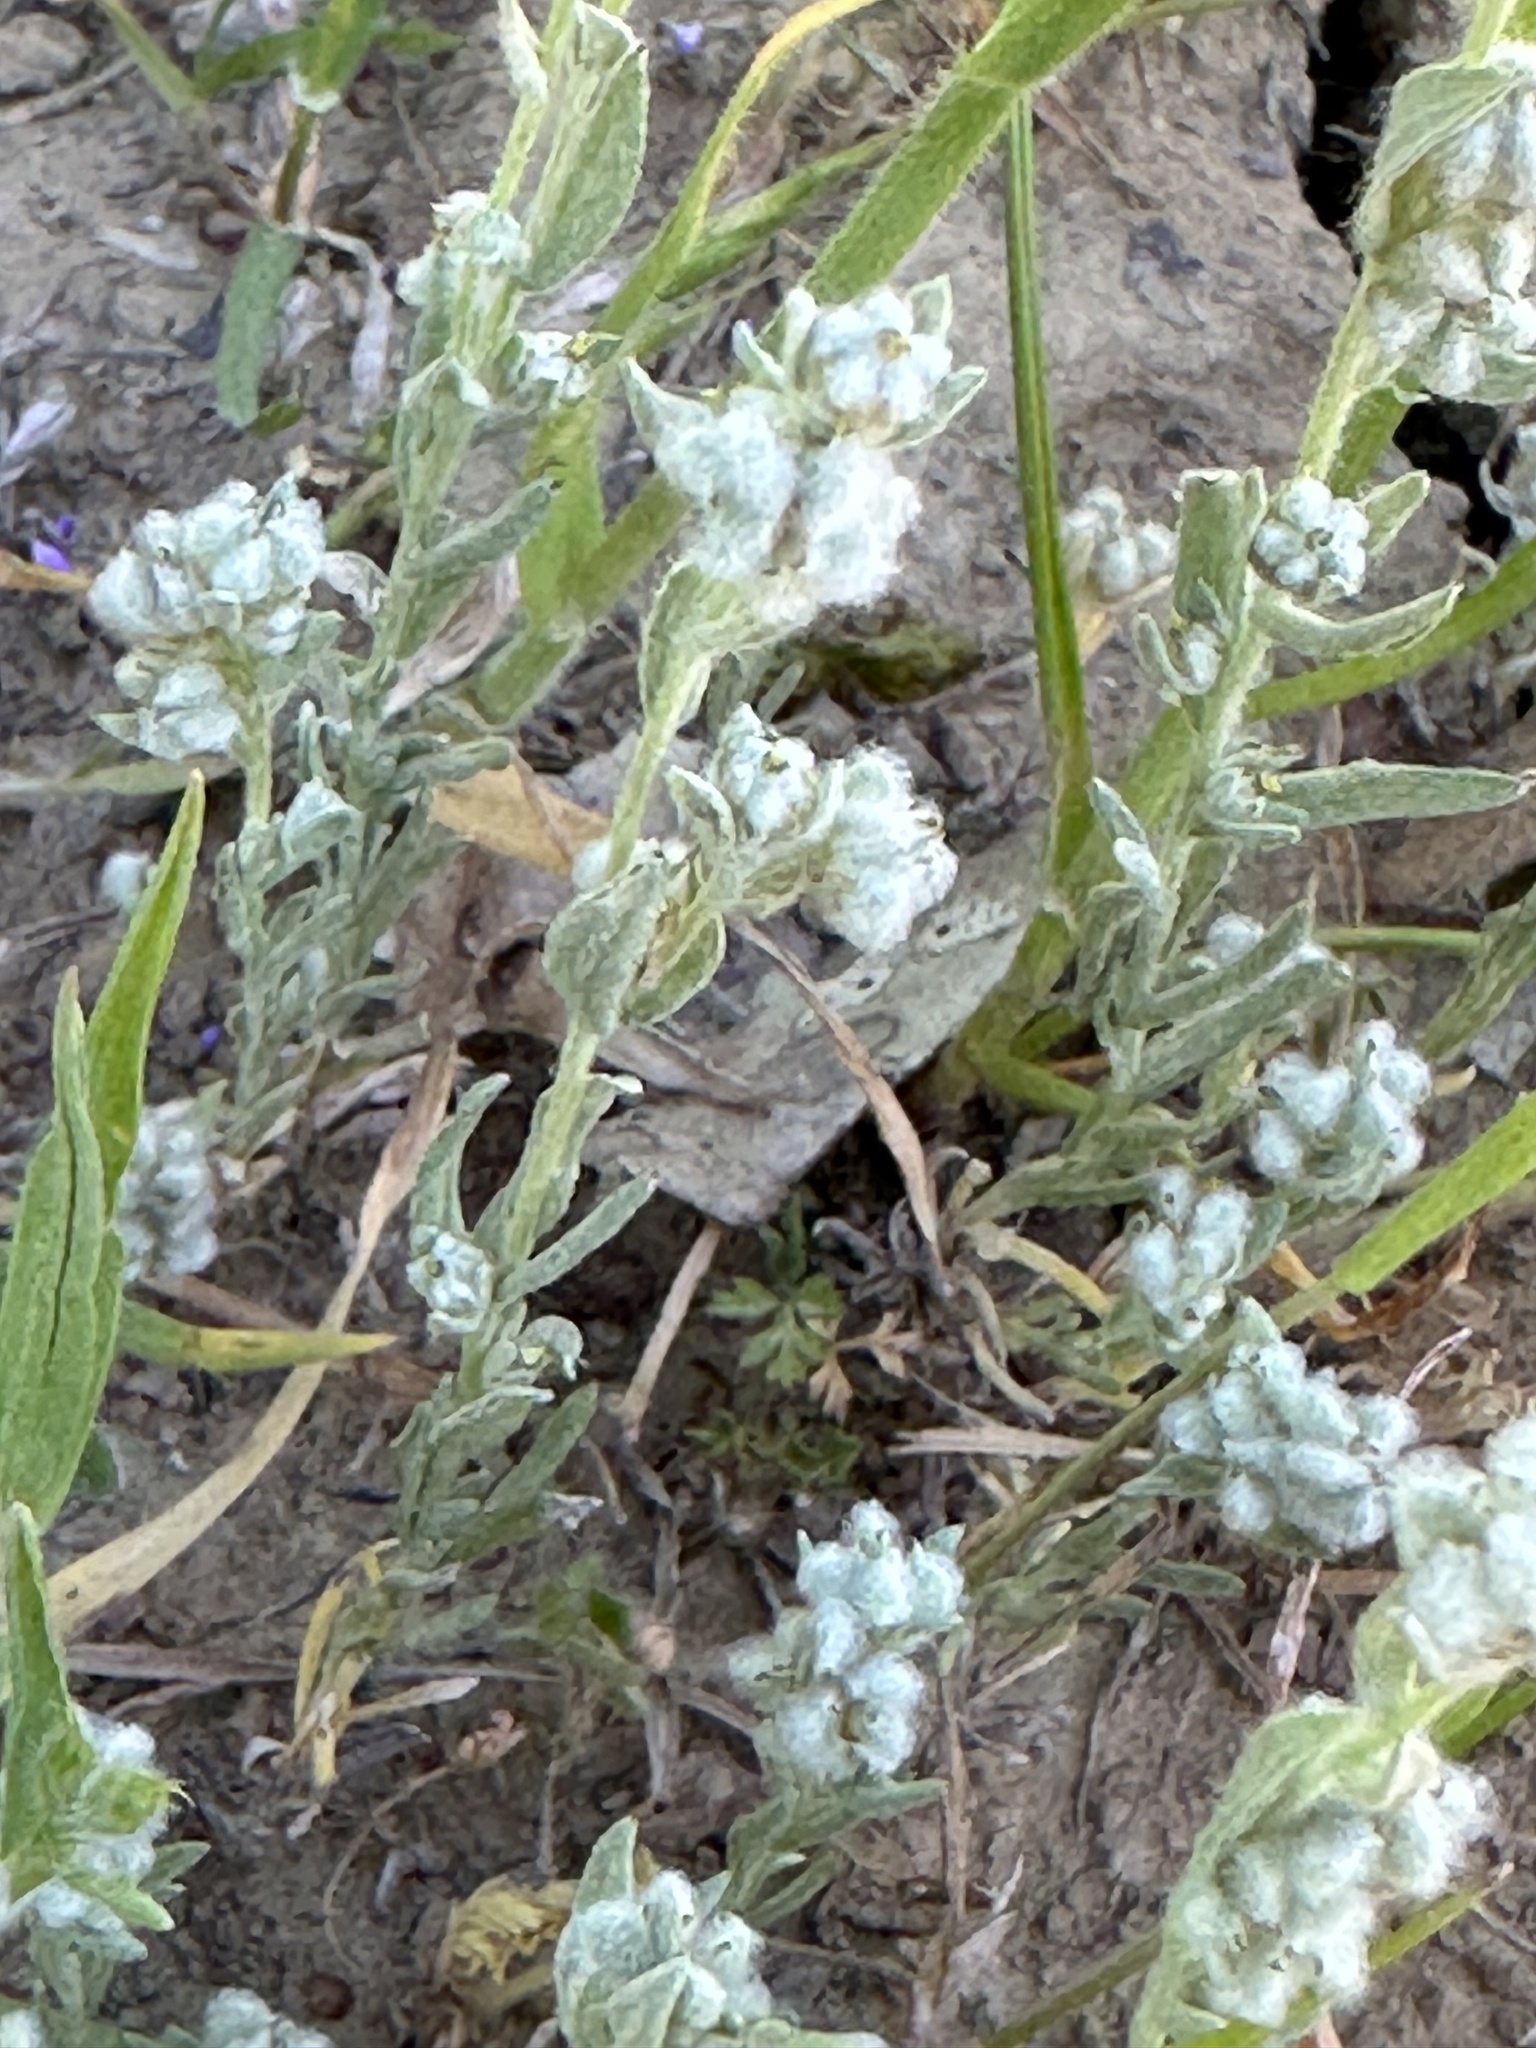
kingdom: Plantae
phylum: Tracheophyta
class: Magnoliopsida
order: Asterales
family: Asteraceae
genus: Bombycilaena
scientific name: Bombycilaena californica
